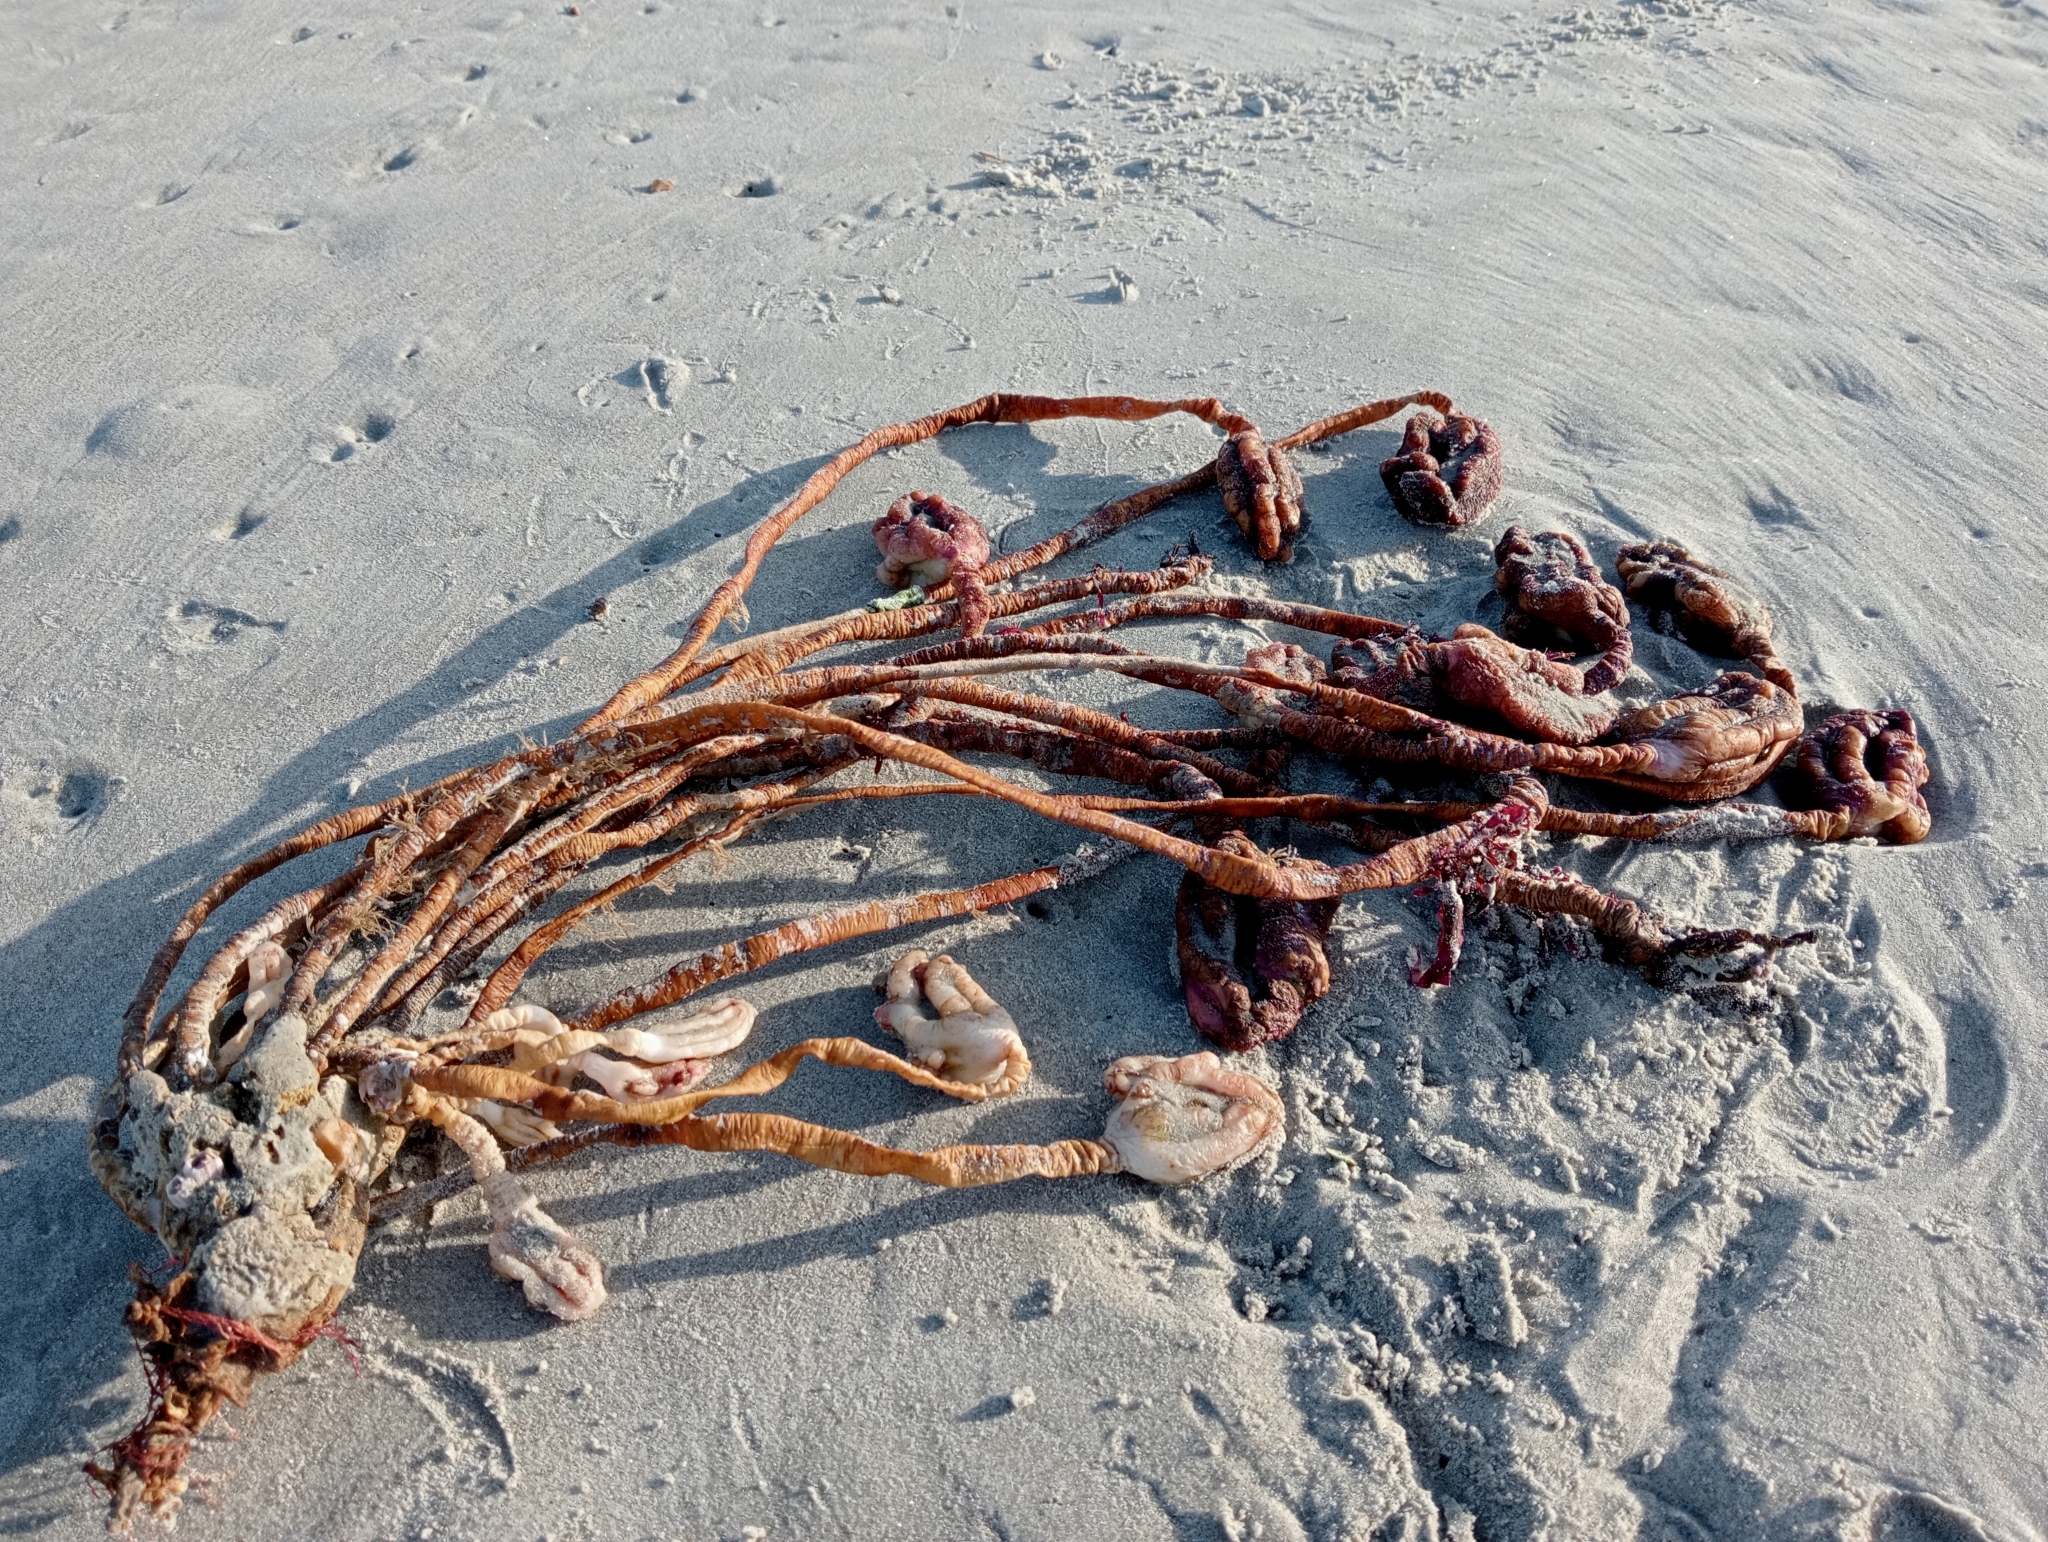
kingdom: Animalia
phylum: Chordata
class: Ascidiacea
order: Stolidobranchia
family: Pyuridae
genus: Pyura
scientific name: Pyura pachydermatina
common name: Sea tulip
